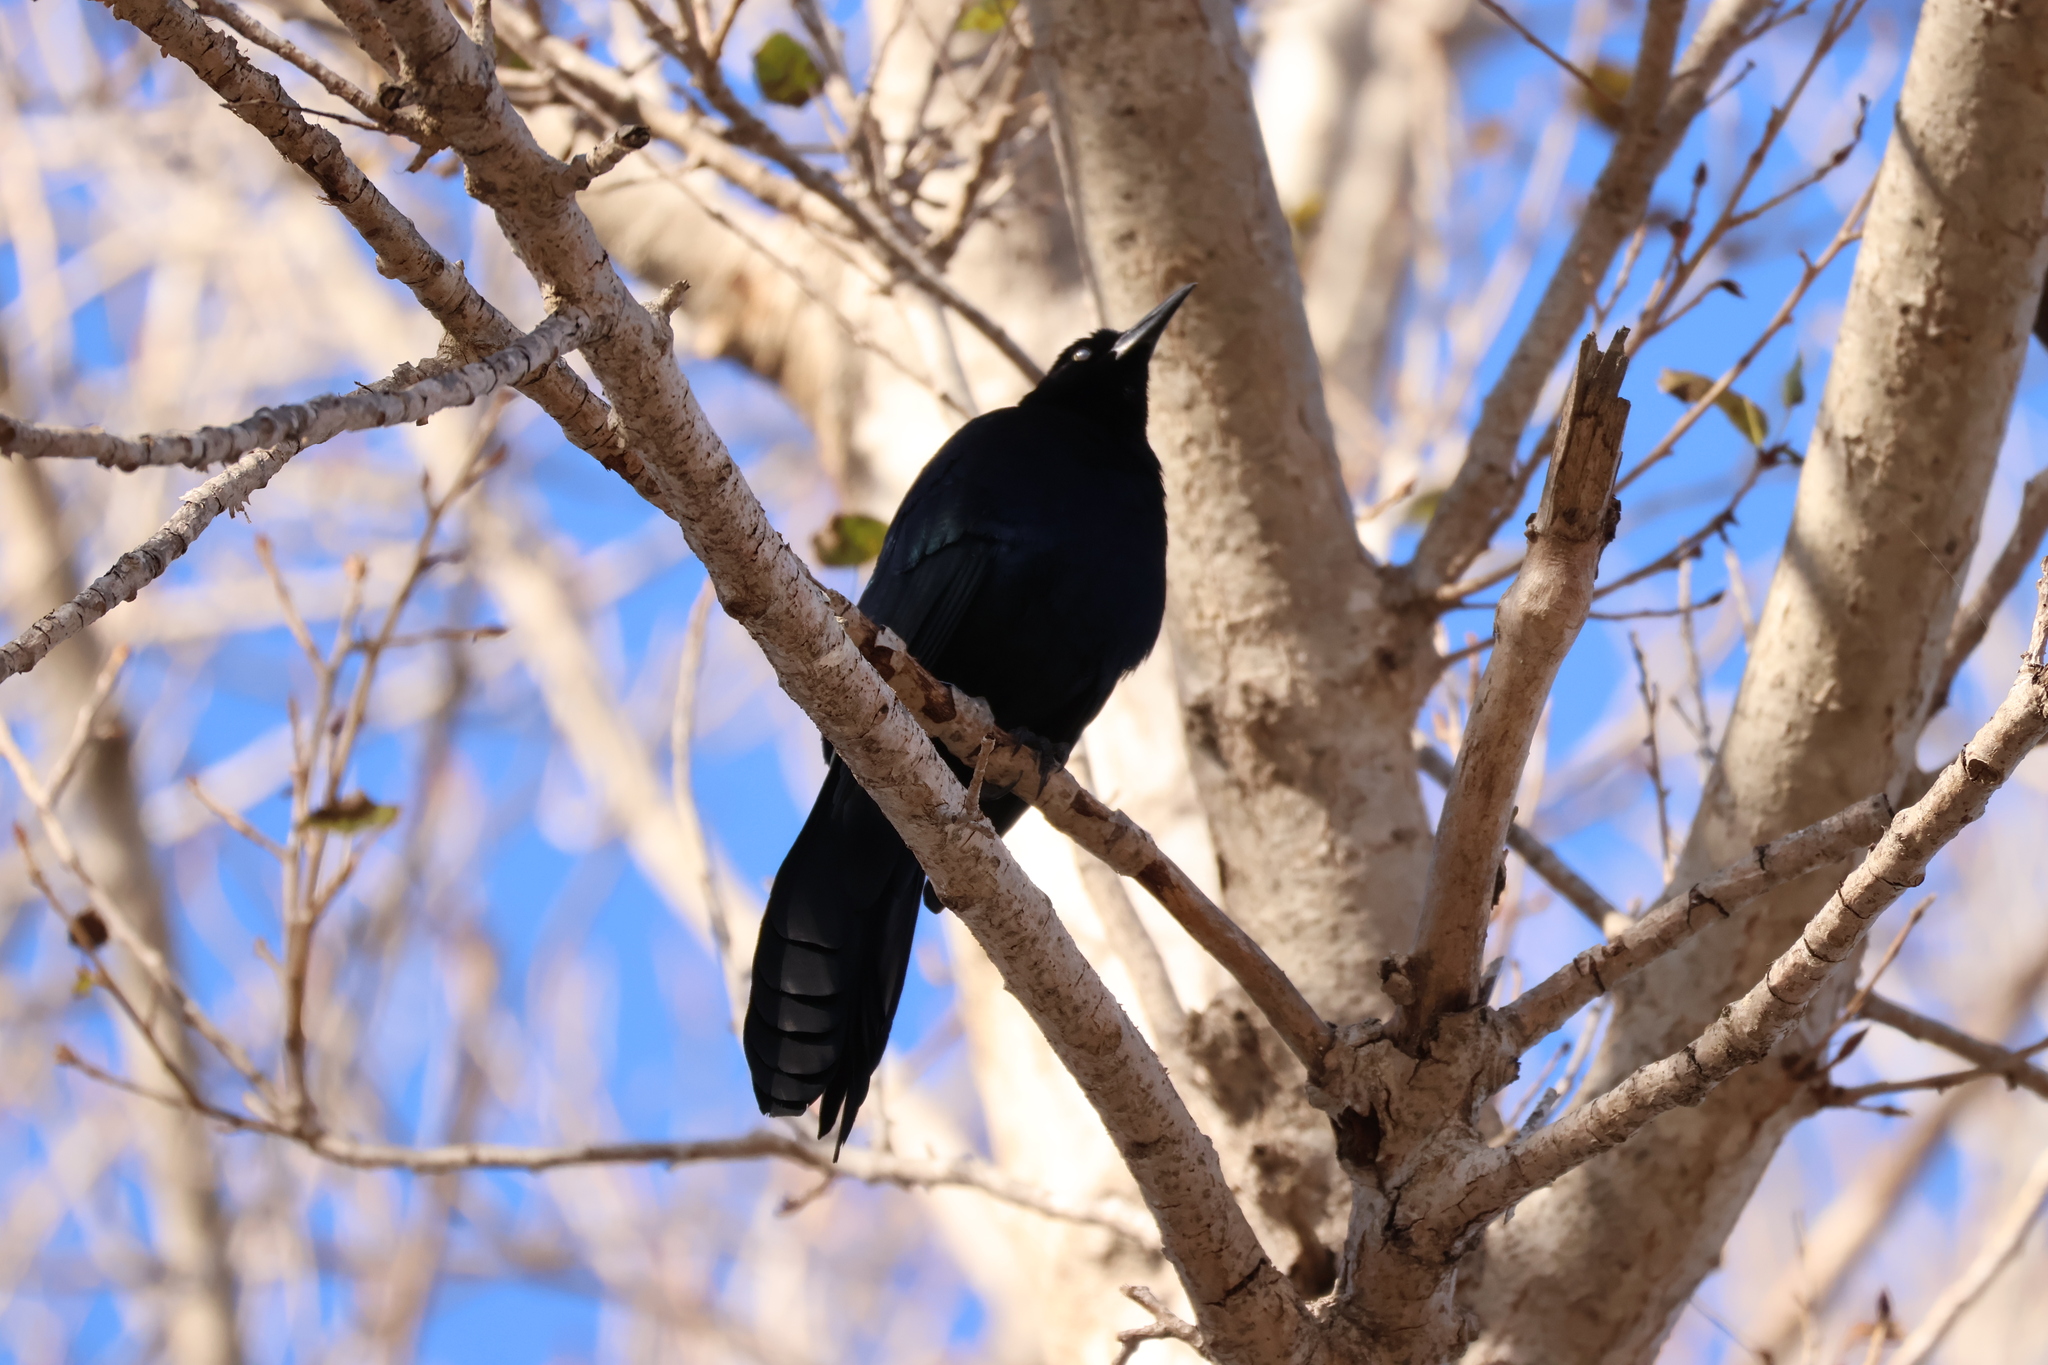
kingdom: Animalia
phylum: Chordata
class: Aves
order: Passeriformes
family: Icteridae
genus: Quiscalus
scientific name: Quiscalus mexicanus
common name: Great-tailed grackle
